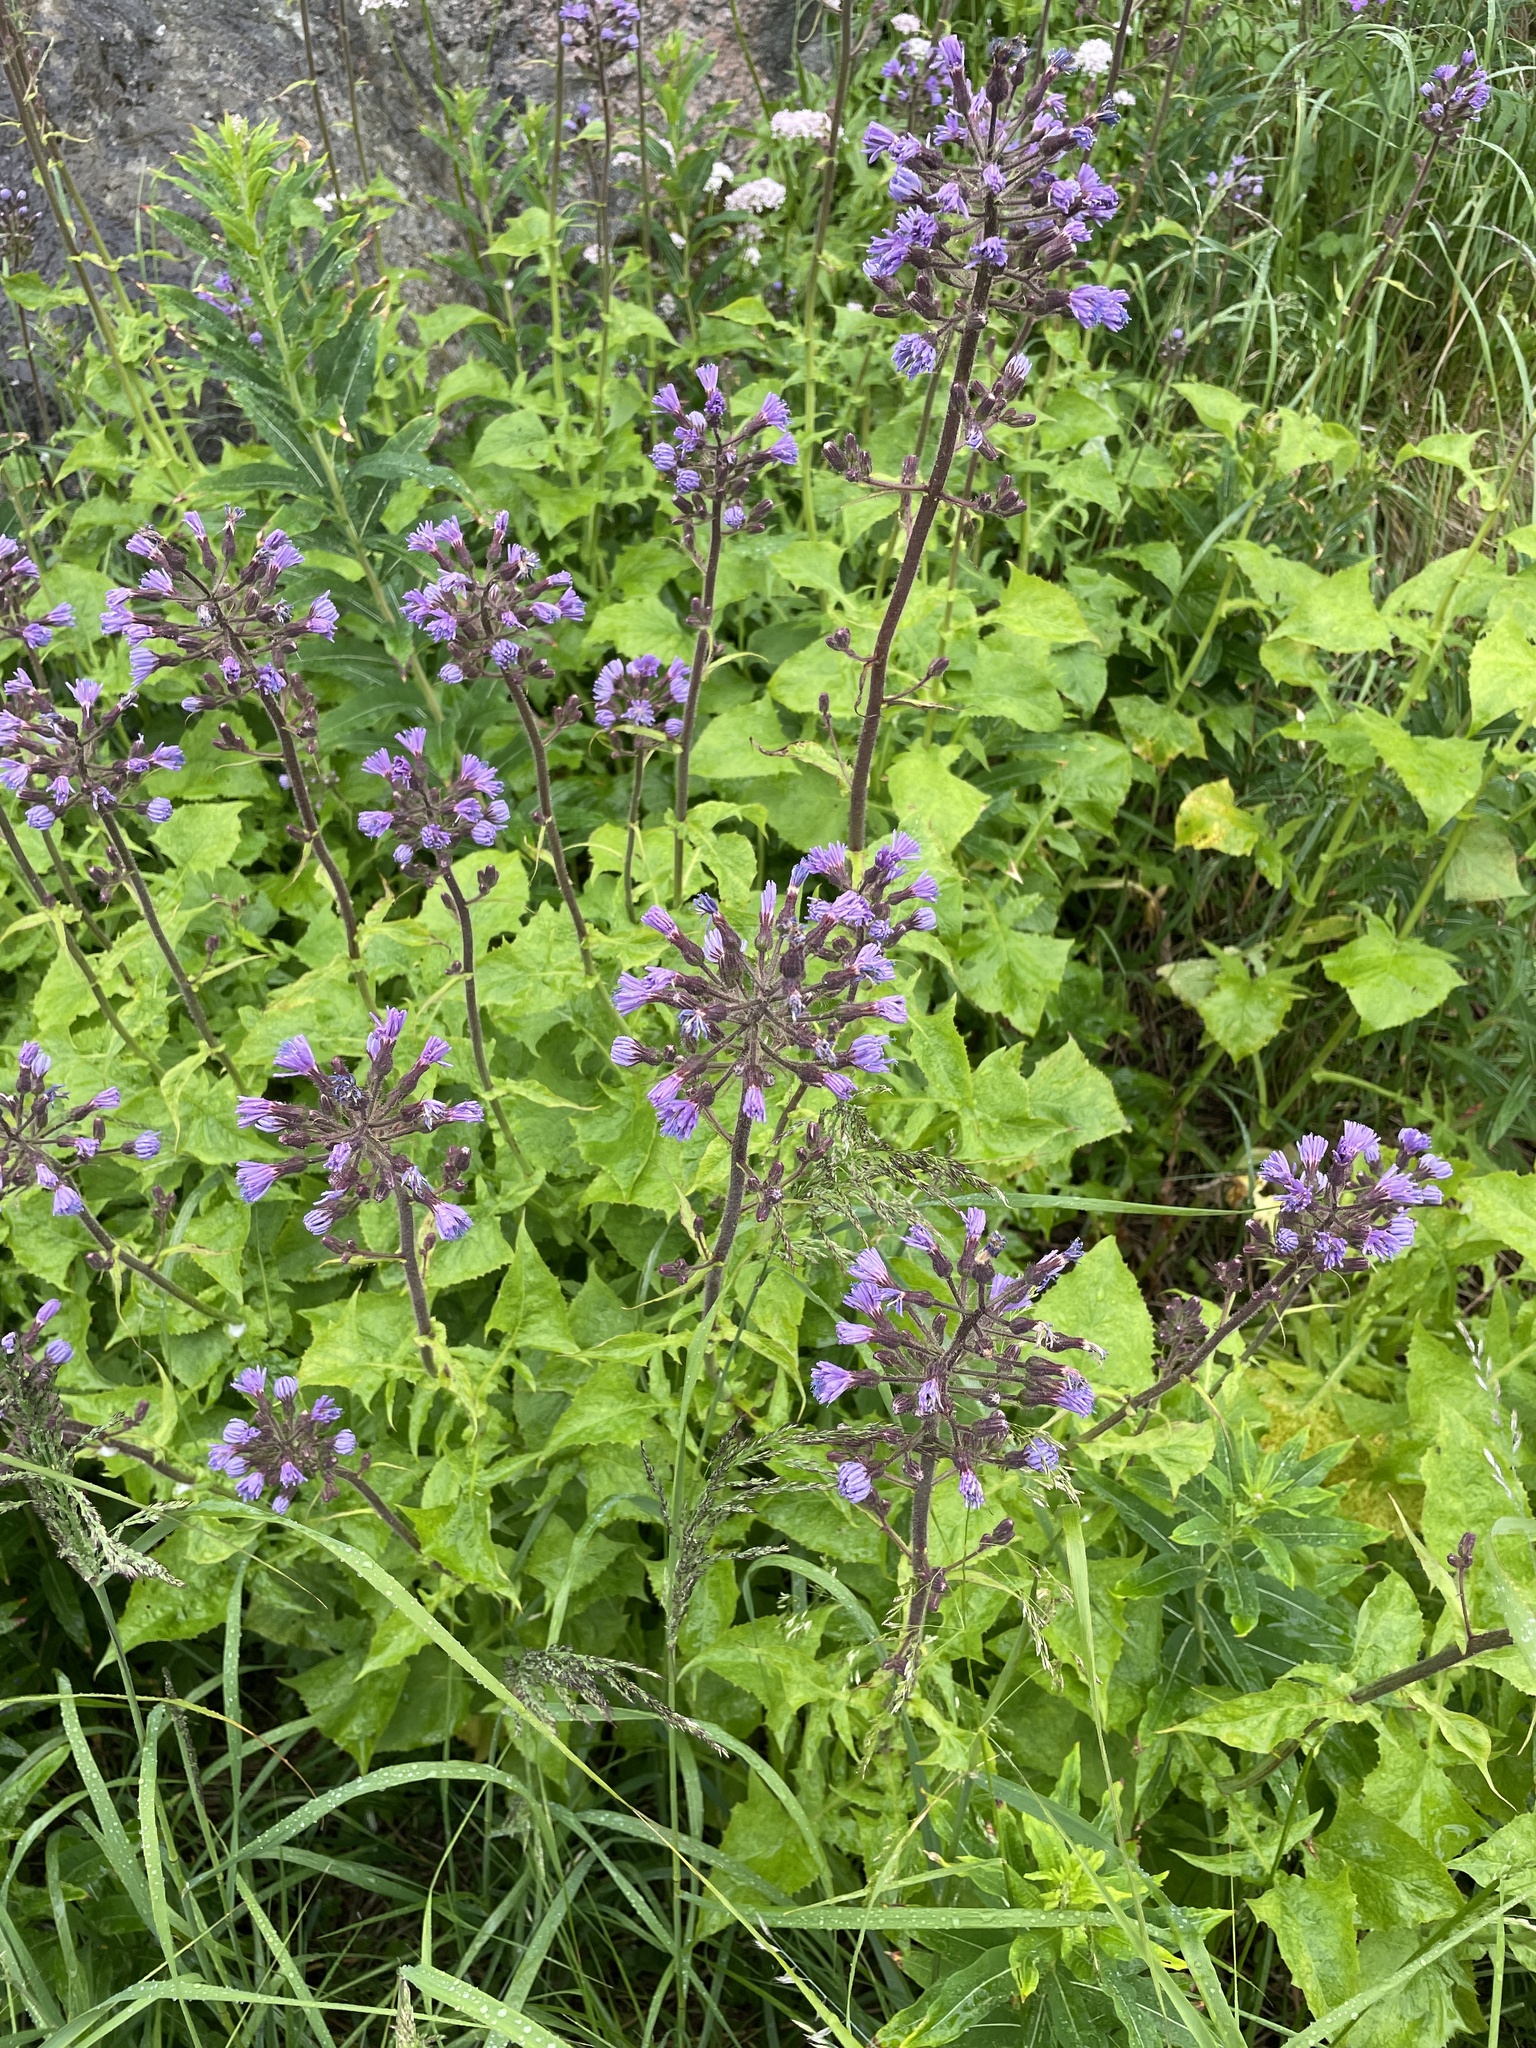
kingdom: Plantae
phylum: Tracheophyta
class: Magnoliopsida
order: Asterales
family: Asteraceae
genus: Cicerbita
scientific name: Cicerbita alpina
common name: Alpine blue-sow-thistle
